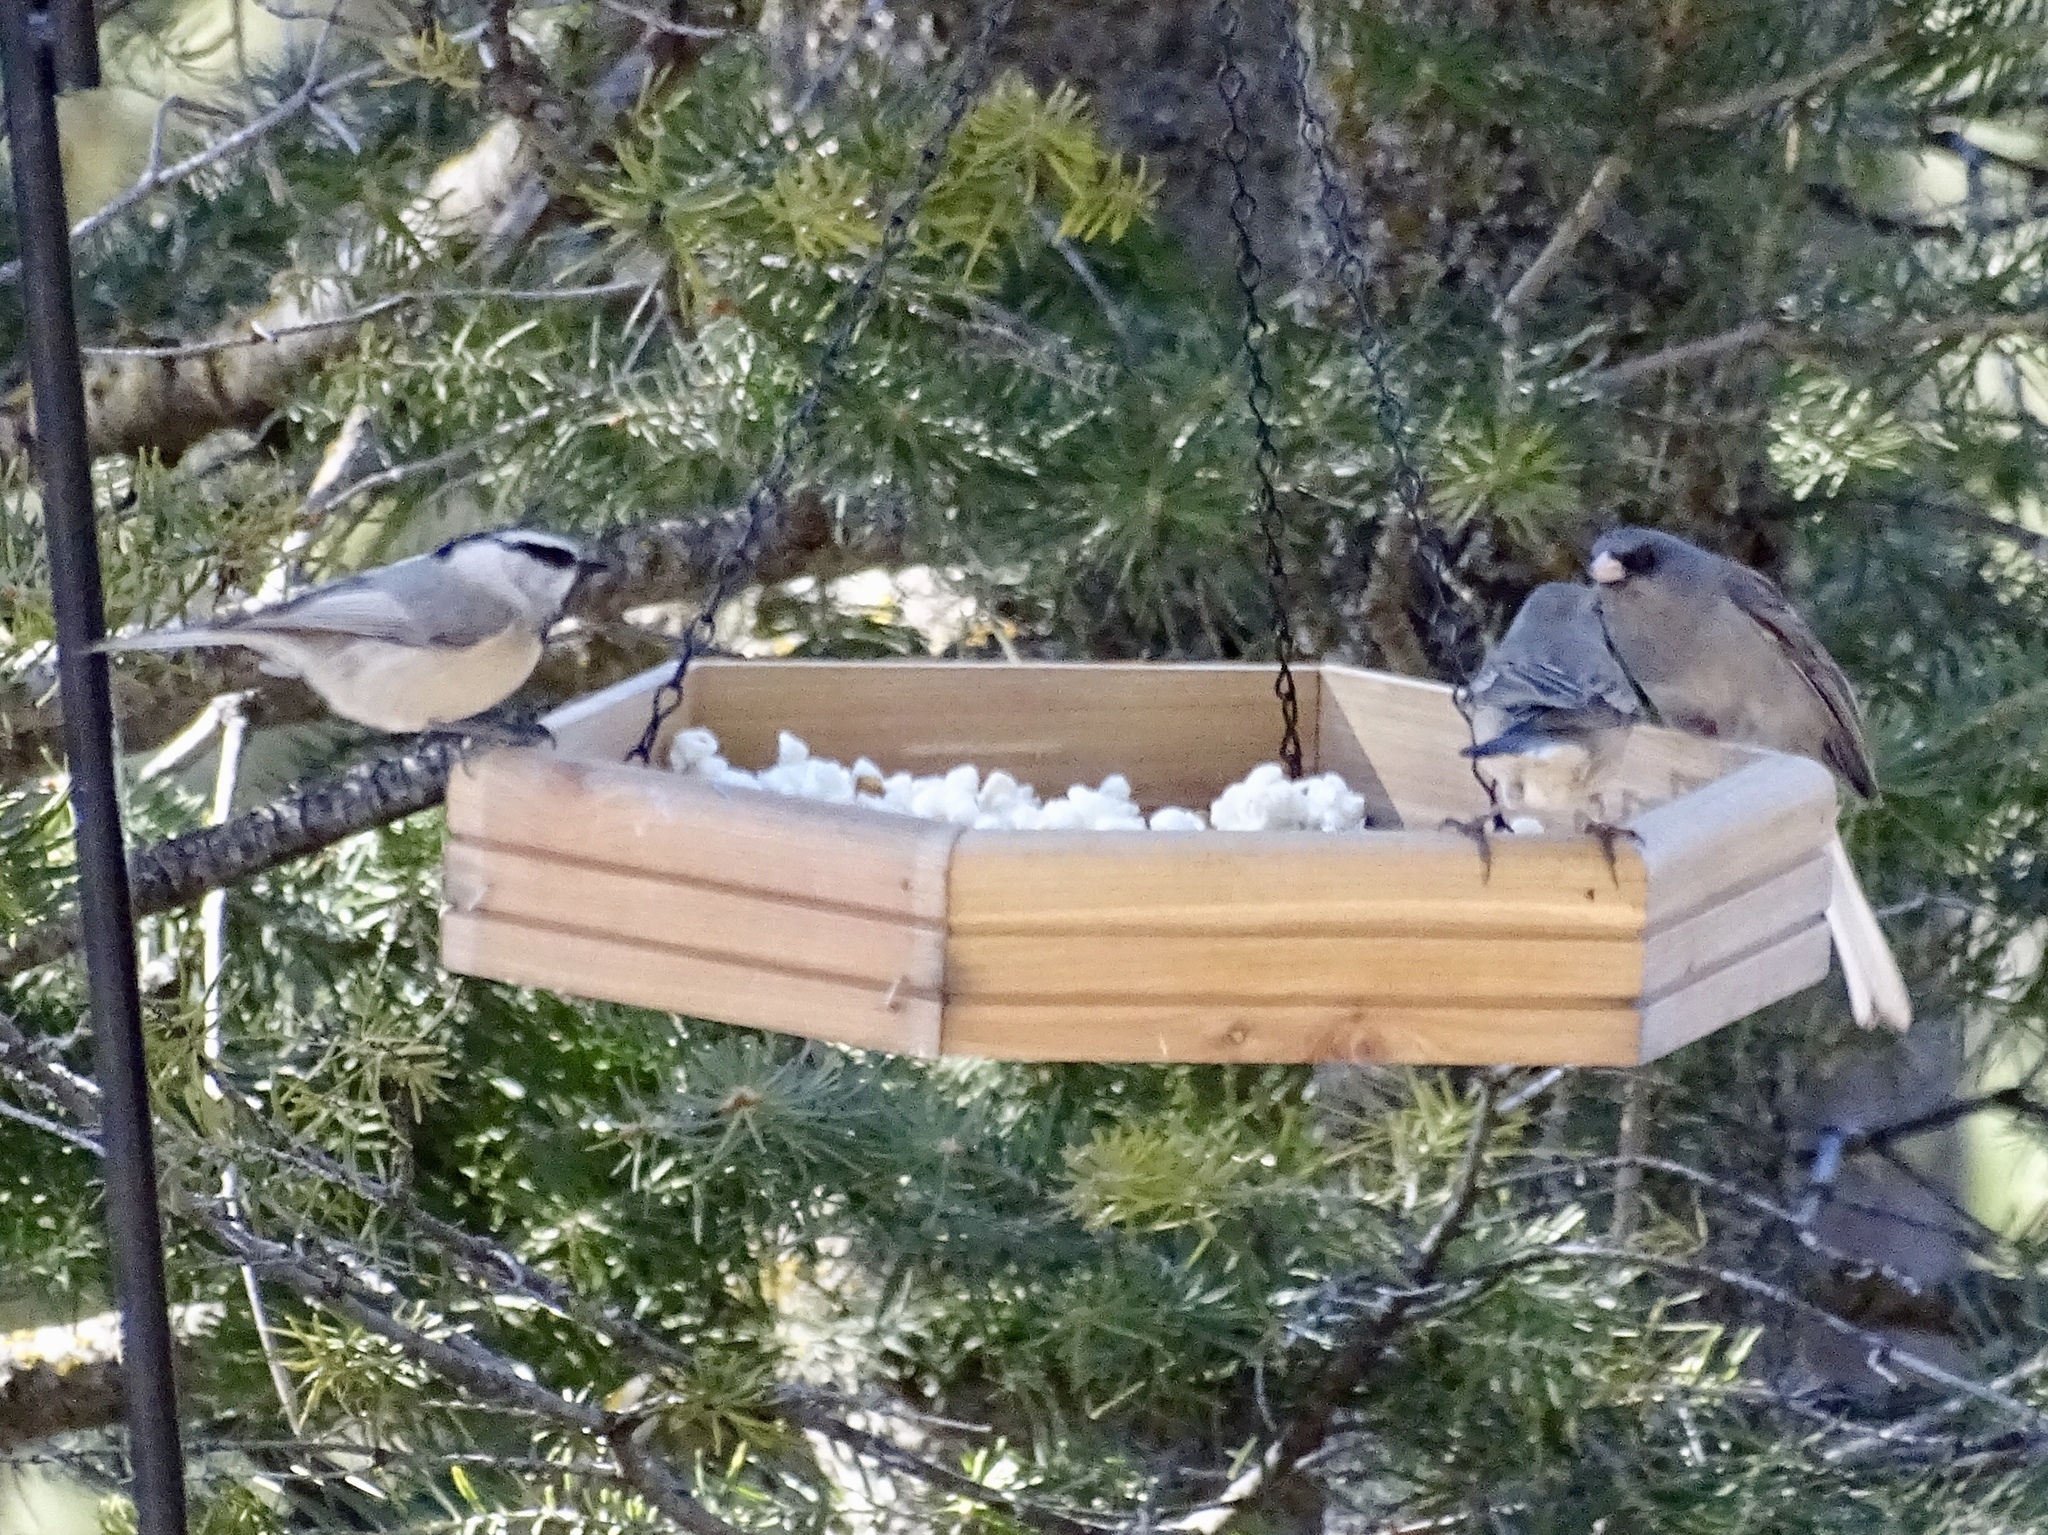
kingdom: Animalia
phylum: Chordata
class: Aves
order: Passeriformes
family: Paridae
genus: Poecile
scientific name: Poecile gambeli
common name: Mountain chickadee
